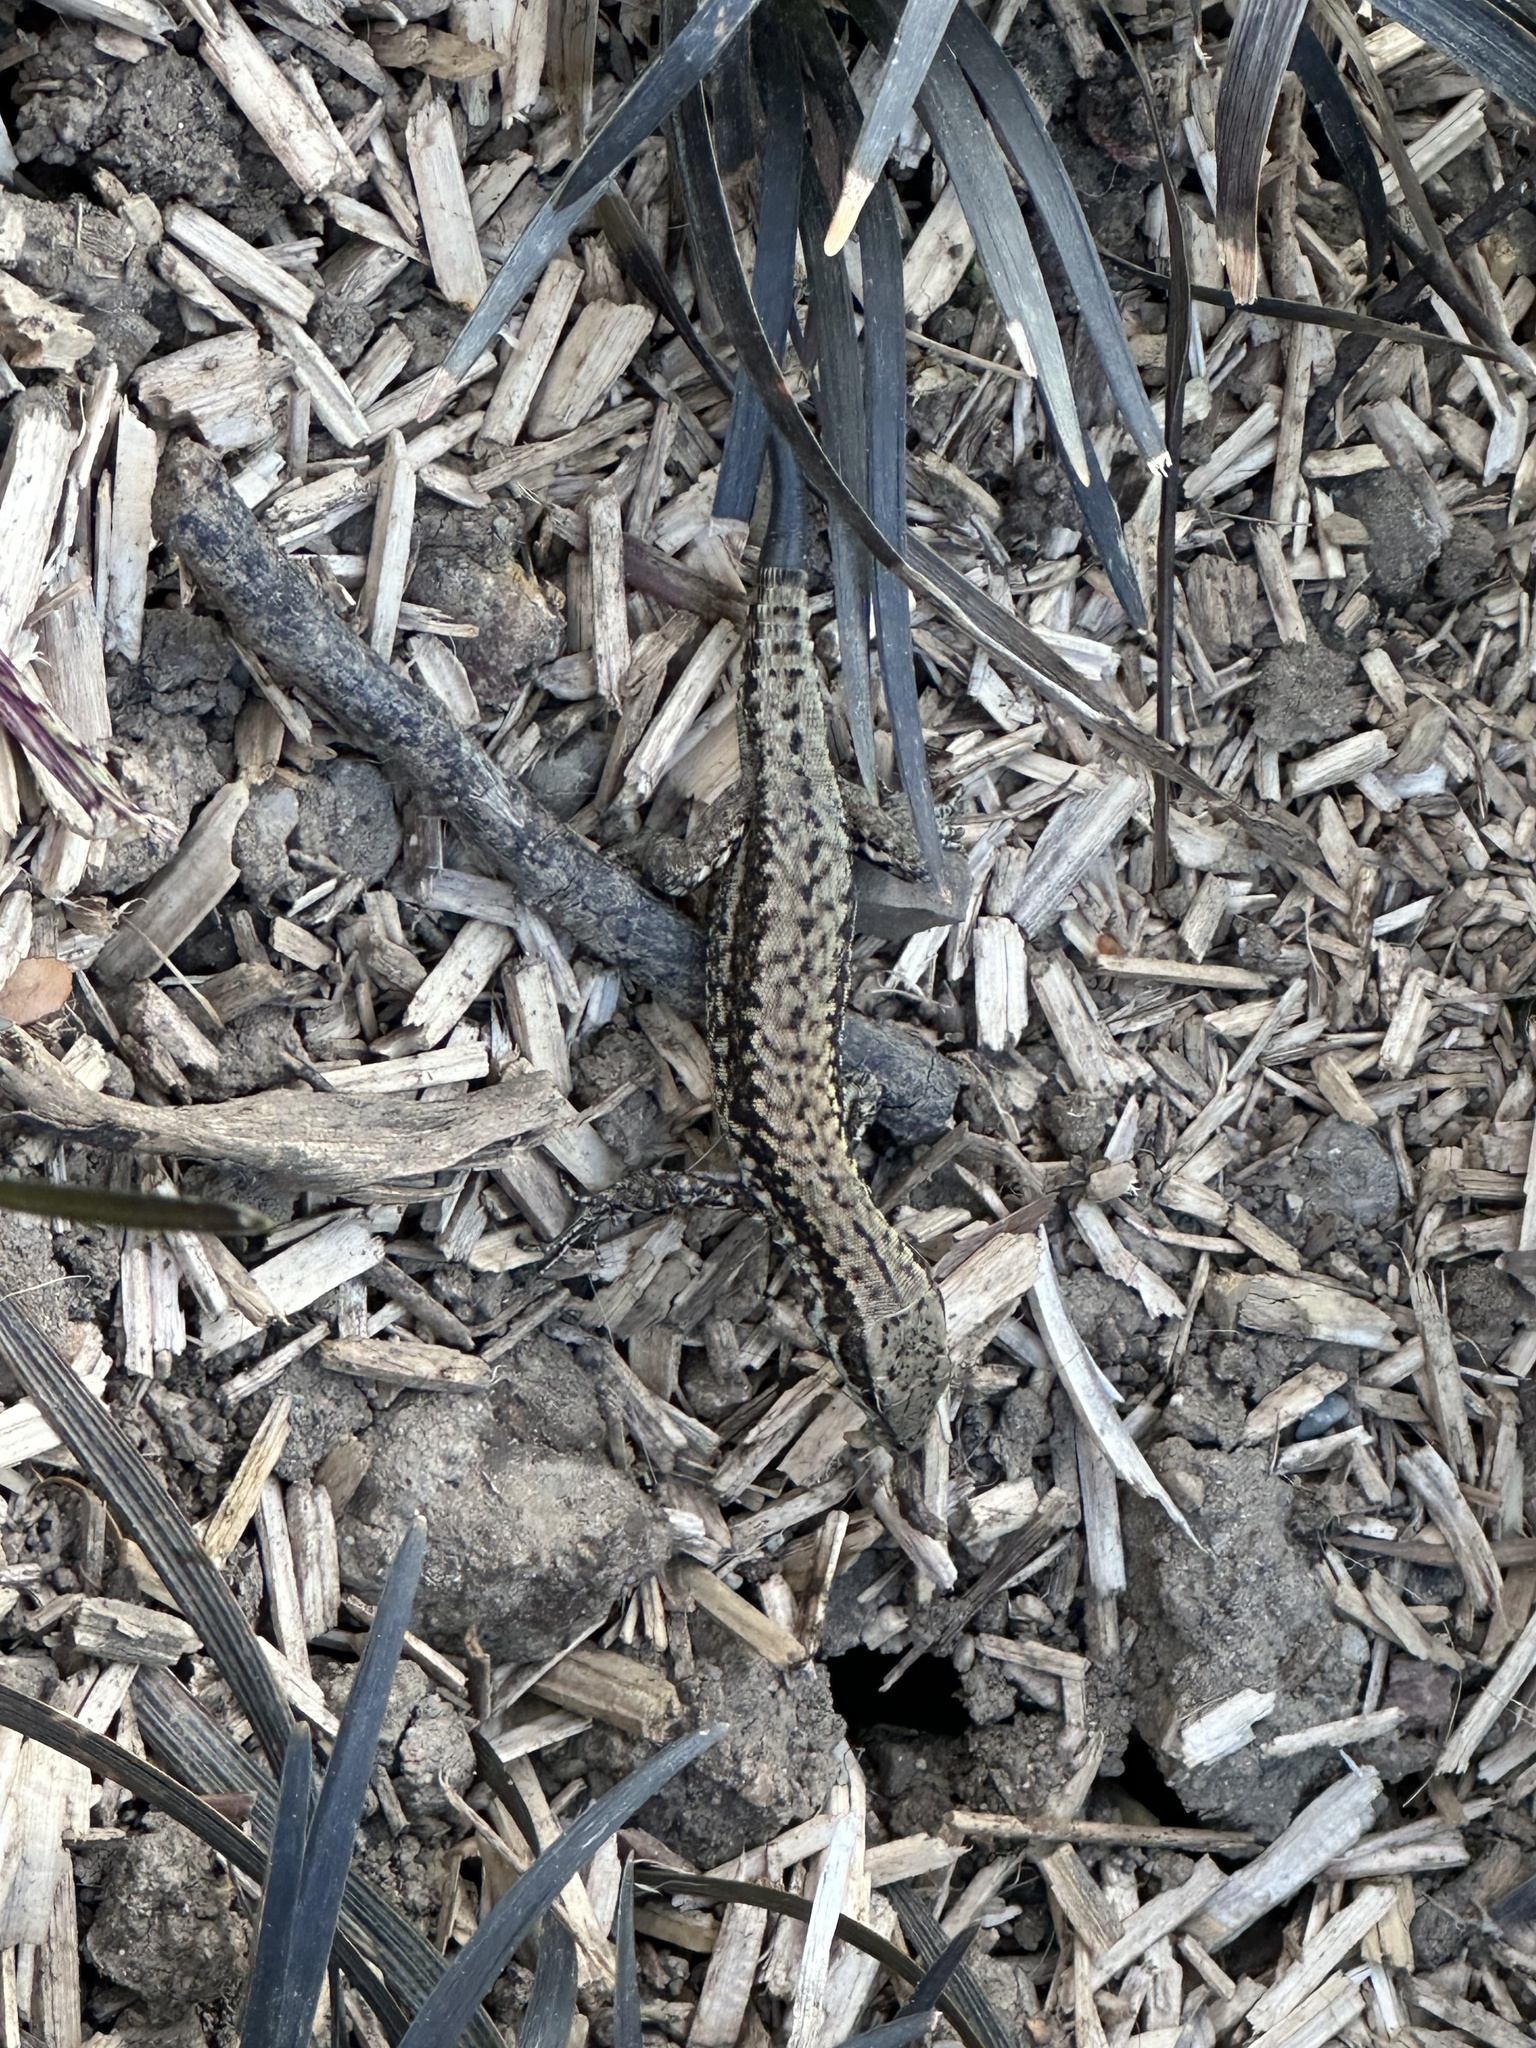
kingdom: Animalia
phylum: Chordata
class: Squamata
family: Lacertidae
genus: Podarcis
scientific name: Podarcis muralis
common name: Common wall lizard
